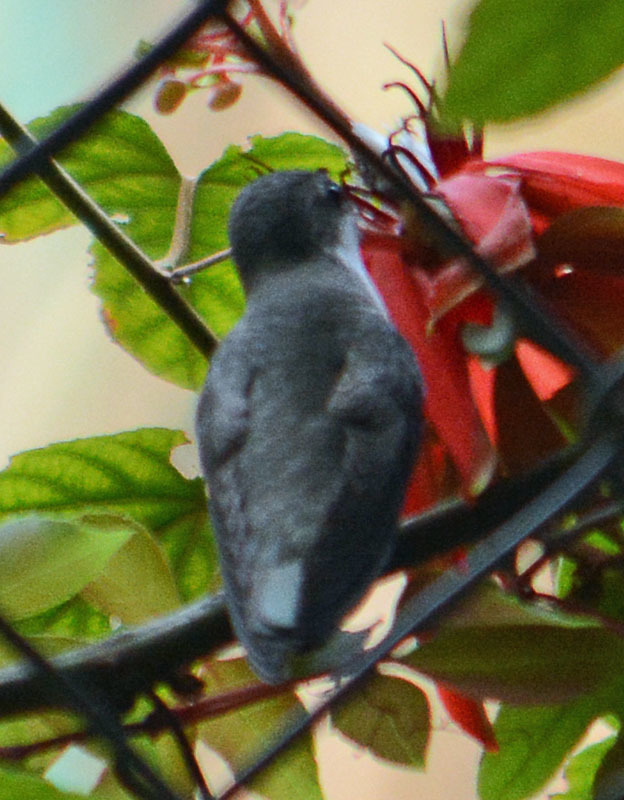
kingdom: Animalia
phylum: Chordata
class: Aves
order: Apodiformes
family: Trochilidae
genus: Leucolia
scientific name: Leucolia violiceps
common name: Violet-crowned hummingbird
